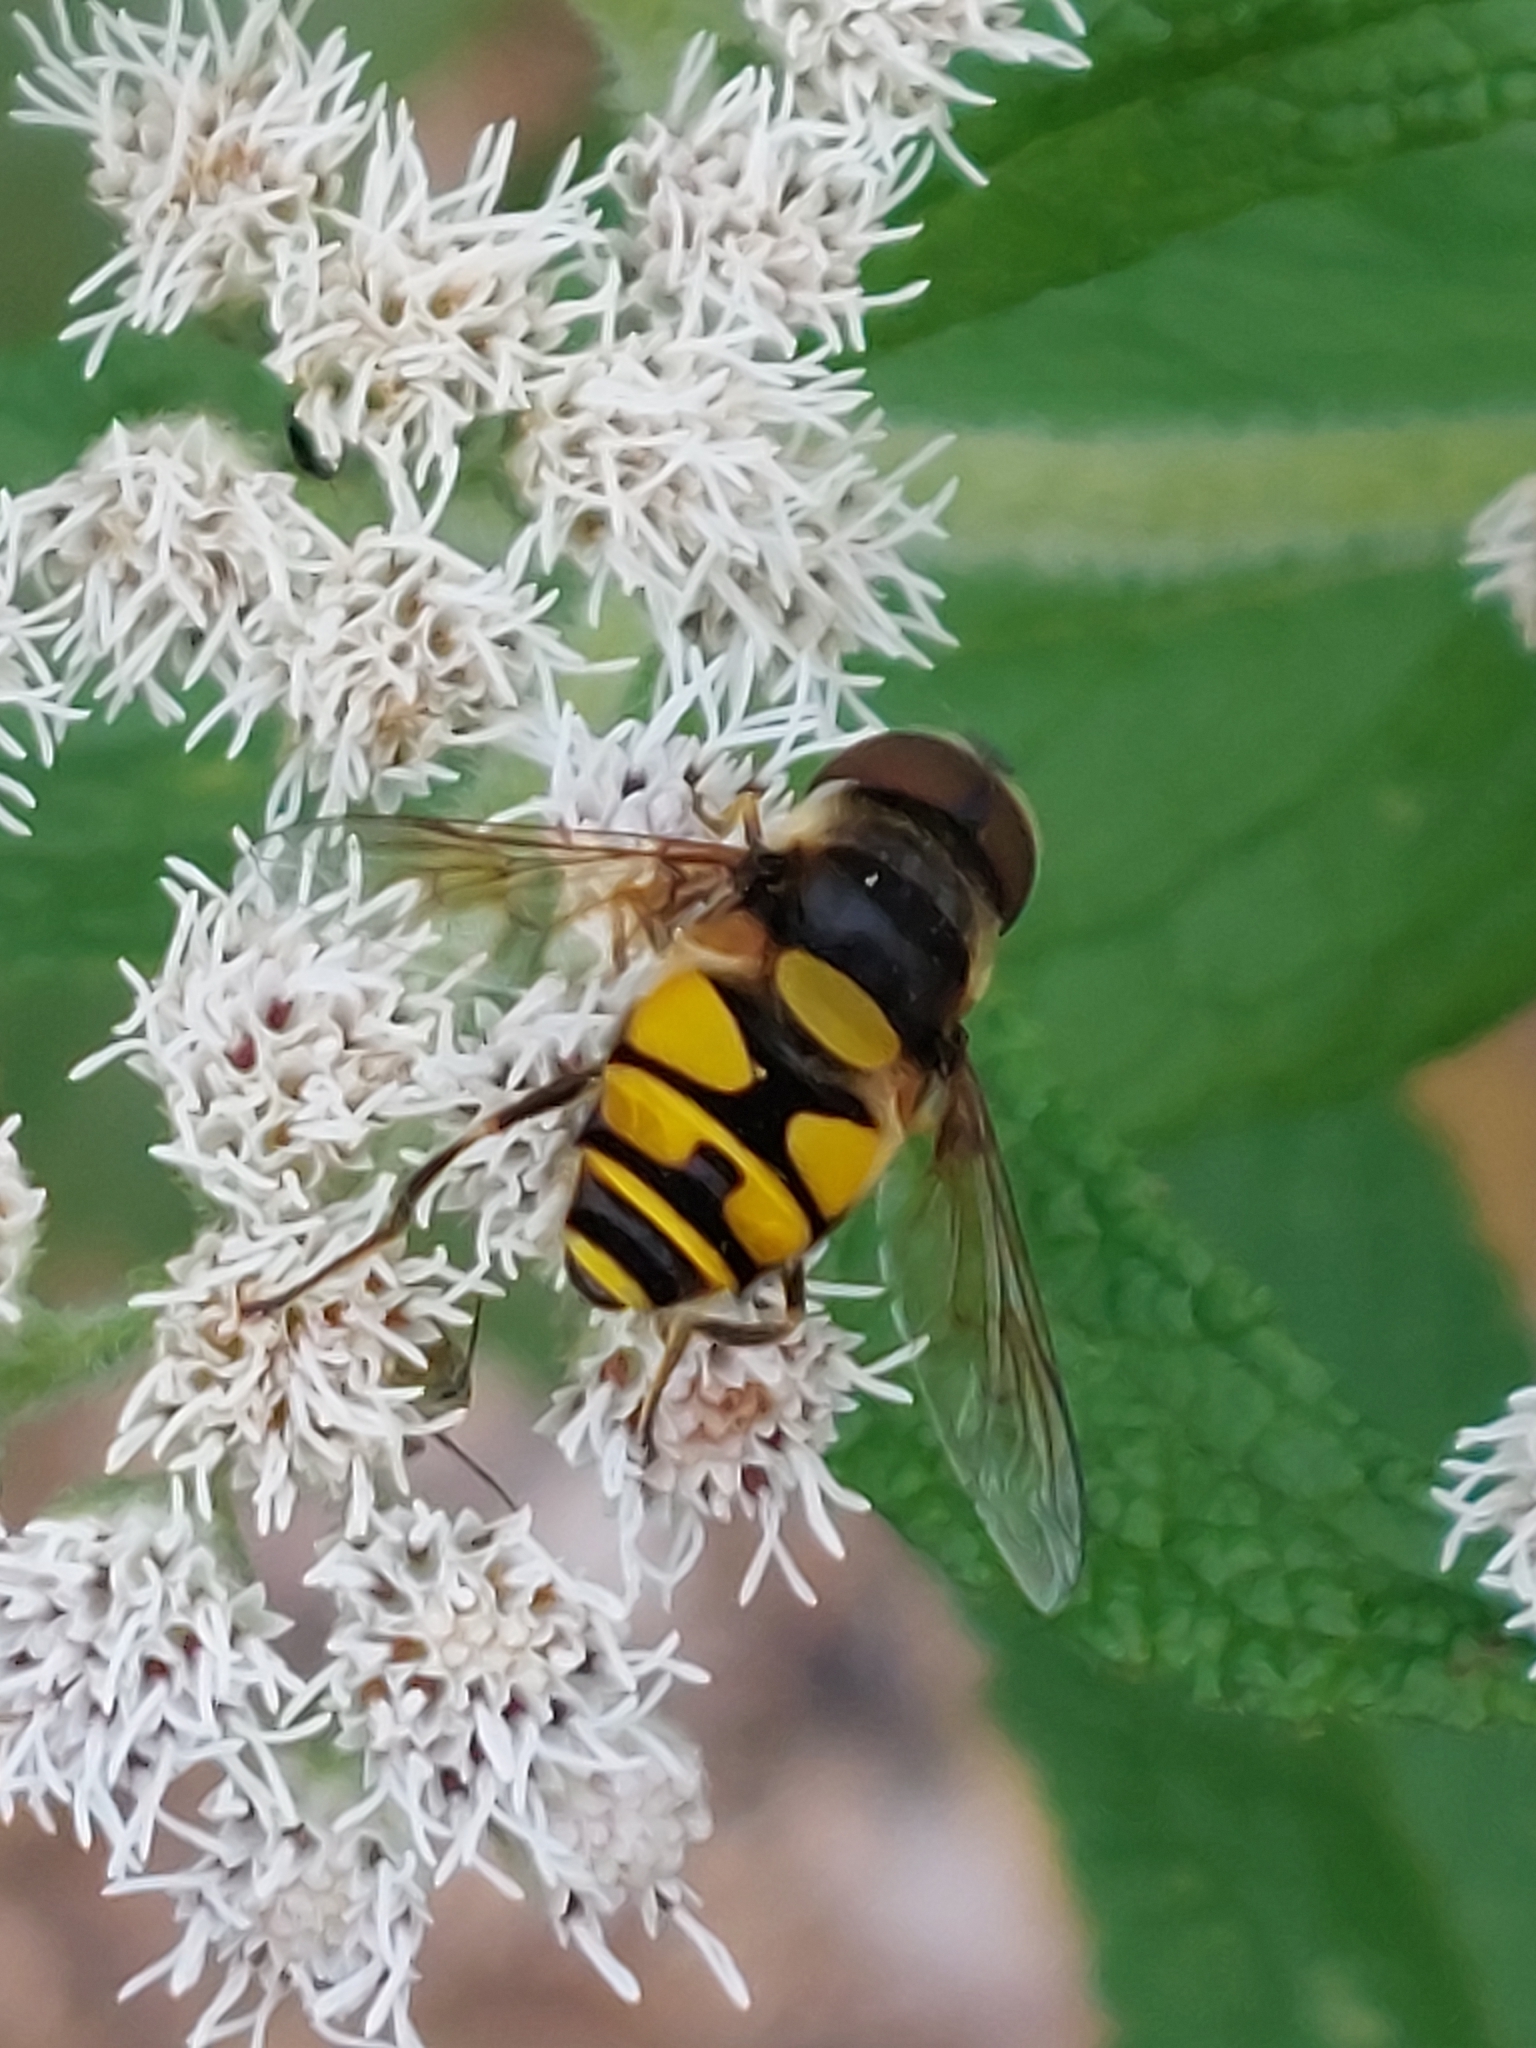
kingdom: Animalia
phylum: Arthropoda
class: Insecta
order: Diptera
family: Syrphidae
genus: Eristalis
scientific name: Eristalis transversa
